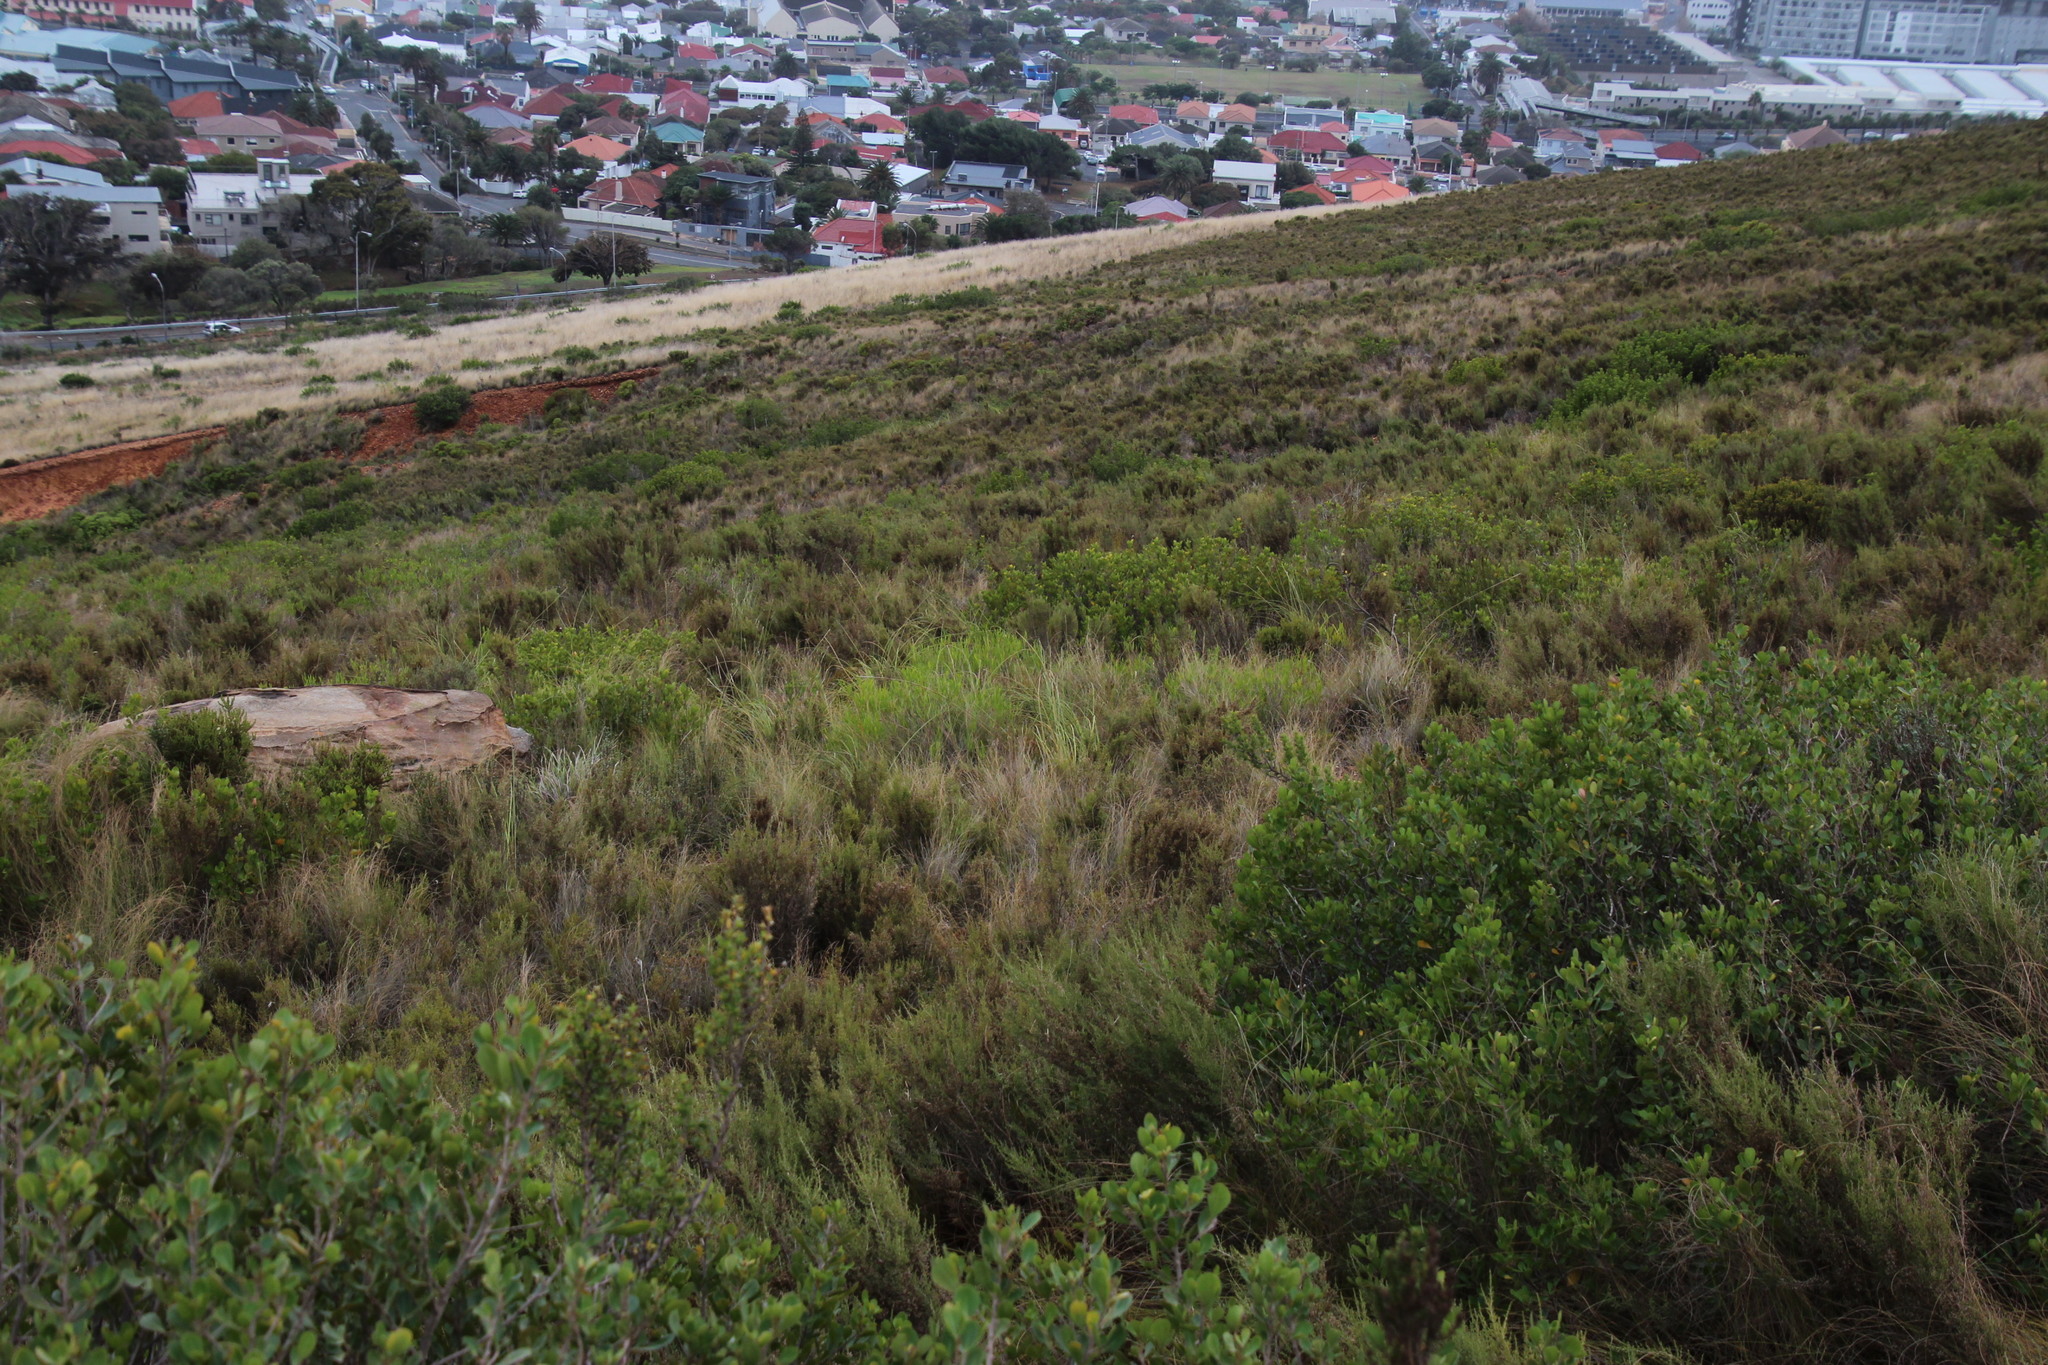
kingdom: Plantae
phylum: Tracheophyta
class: Magnoliopsida
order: Fabales
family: Fabaceae
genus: Acacia
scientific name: Acacia cyclops
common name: Coastal wattle
